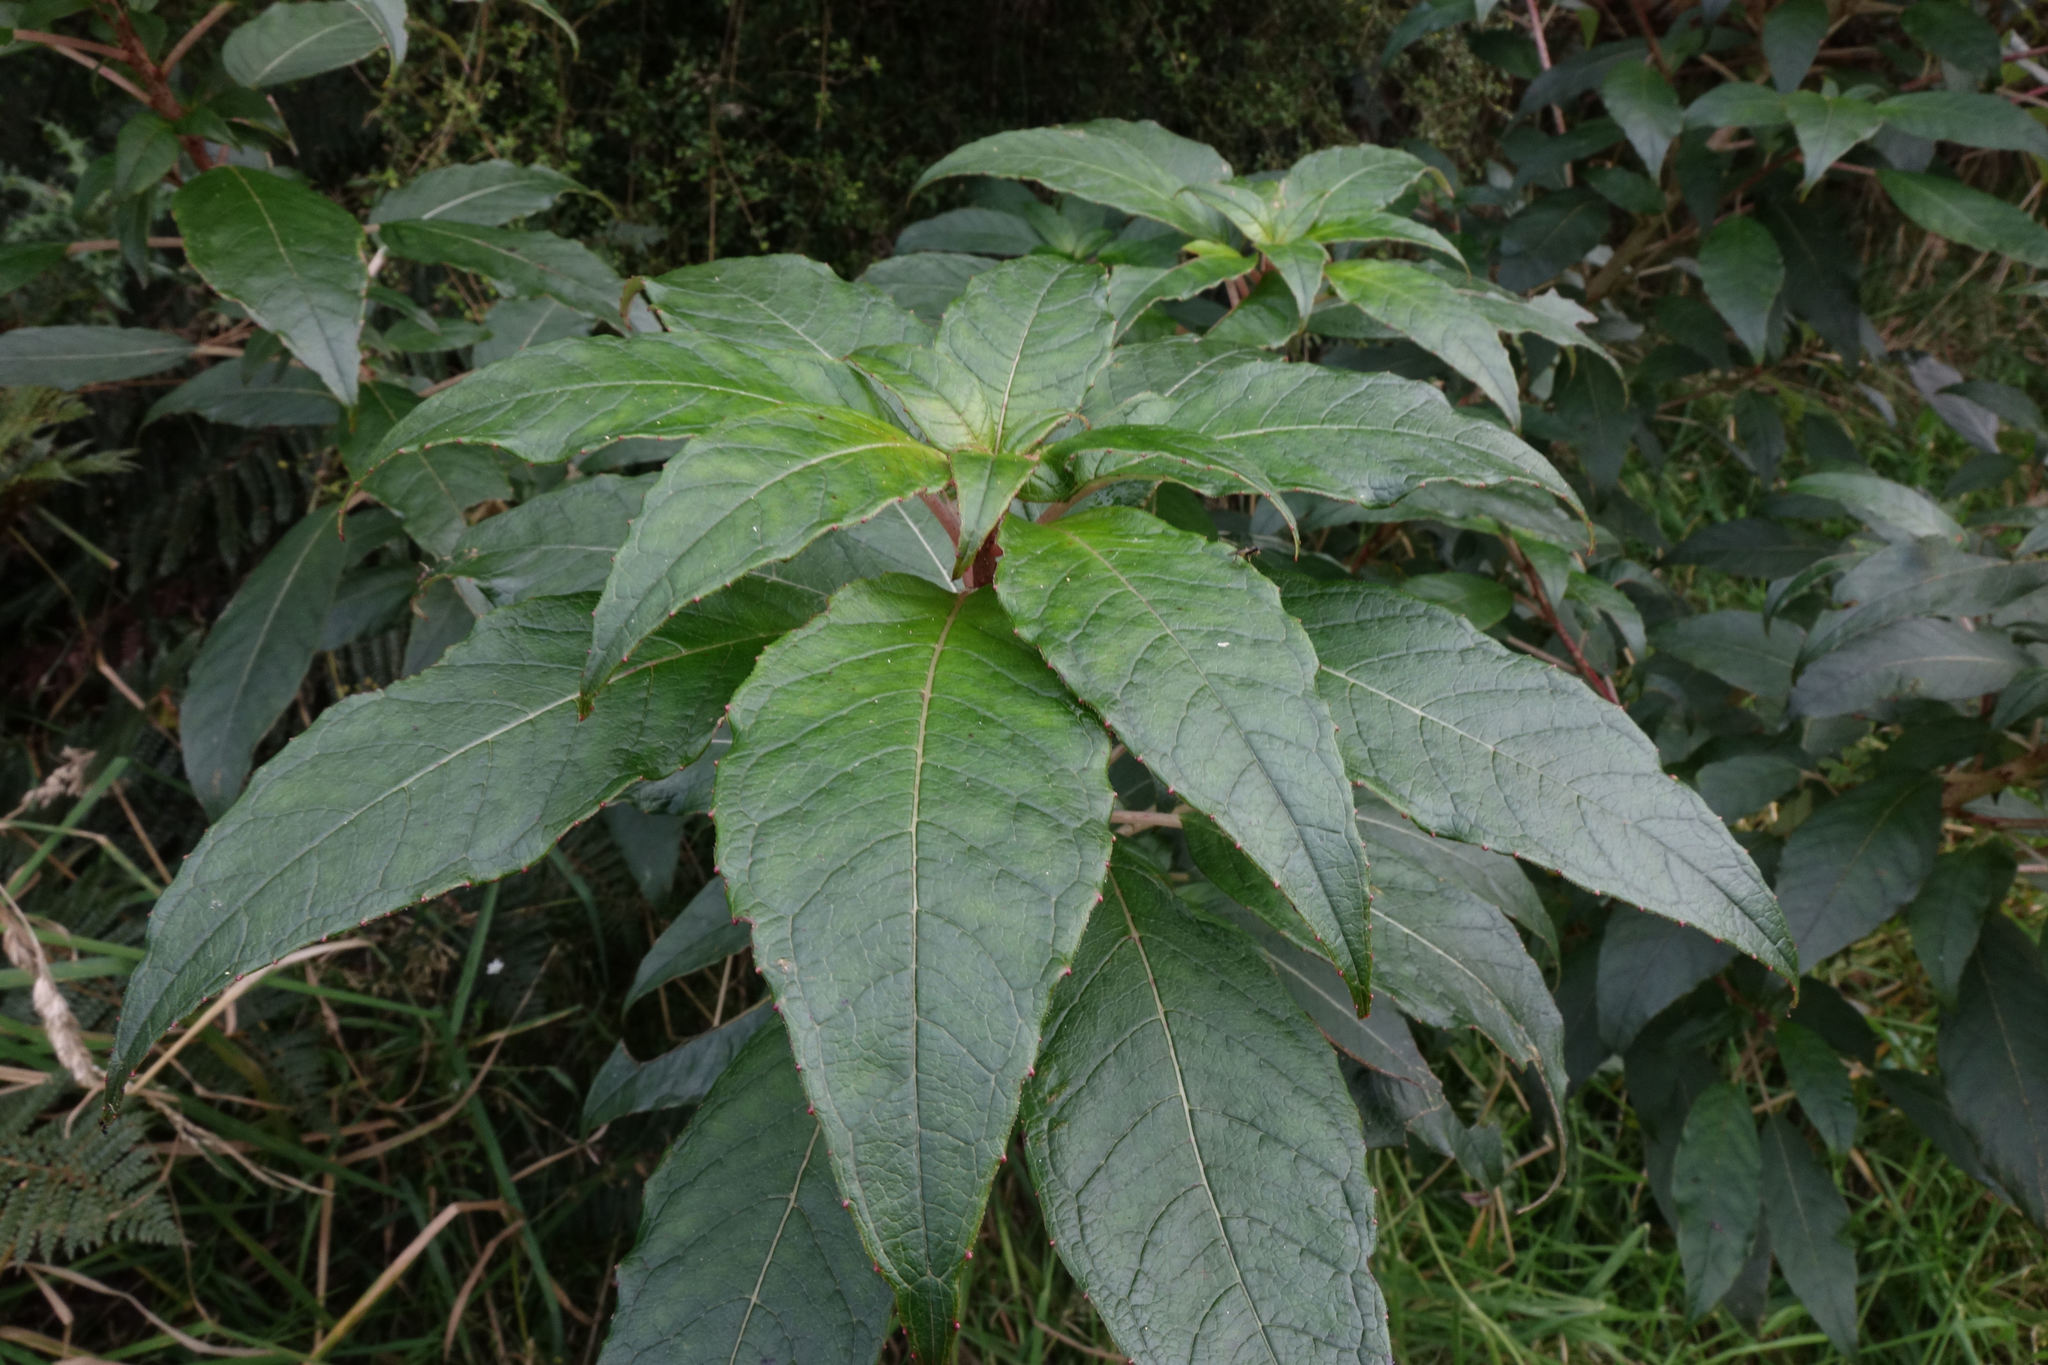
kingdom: Plantae
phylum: Tracheophyta
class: Magnoliopsida
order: Myrtales
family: Onagraceae
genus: Fuchsia
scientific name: Fuchsia excorticata
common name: Tree fuchsia
